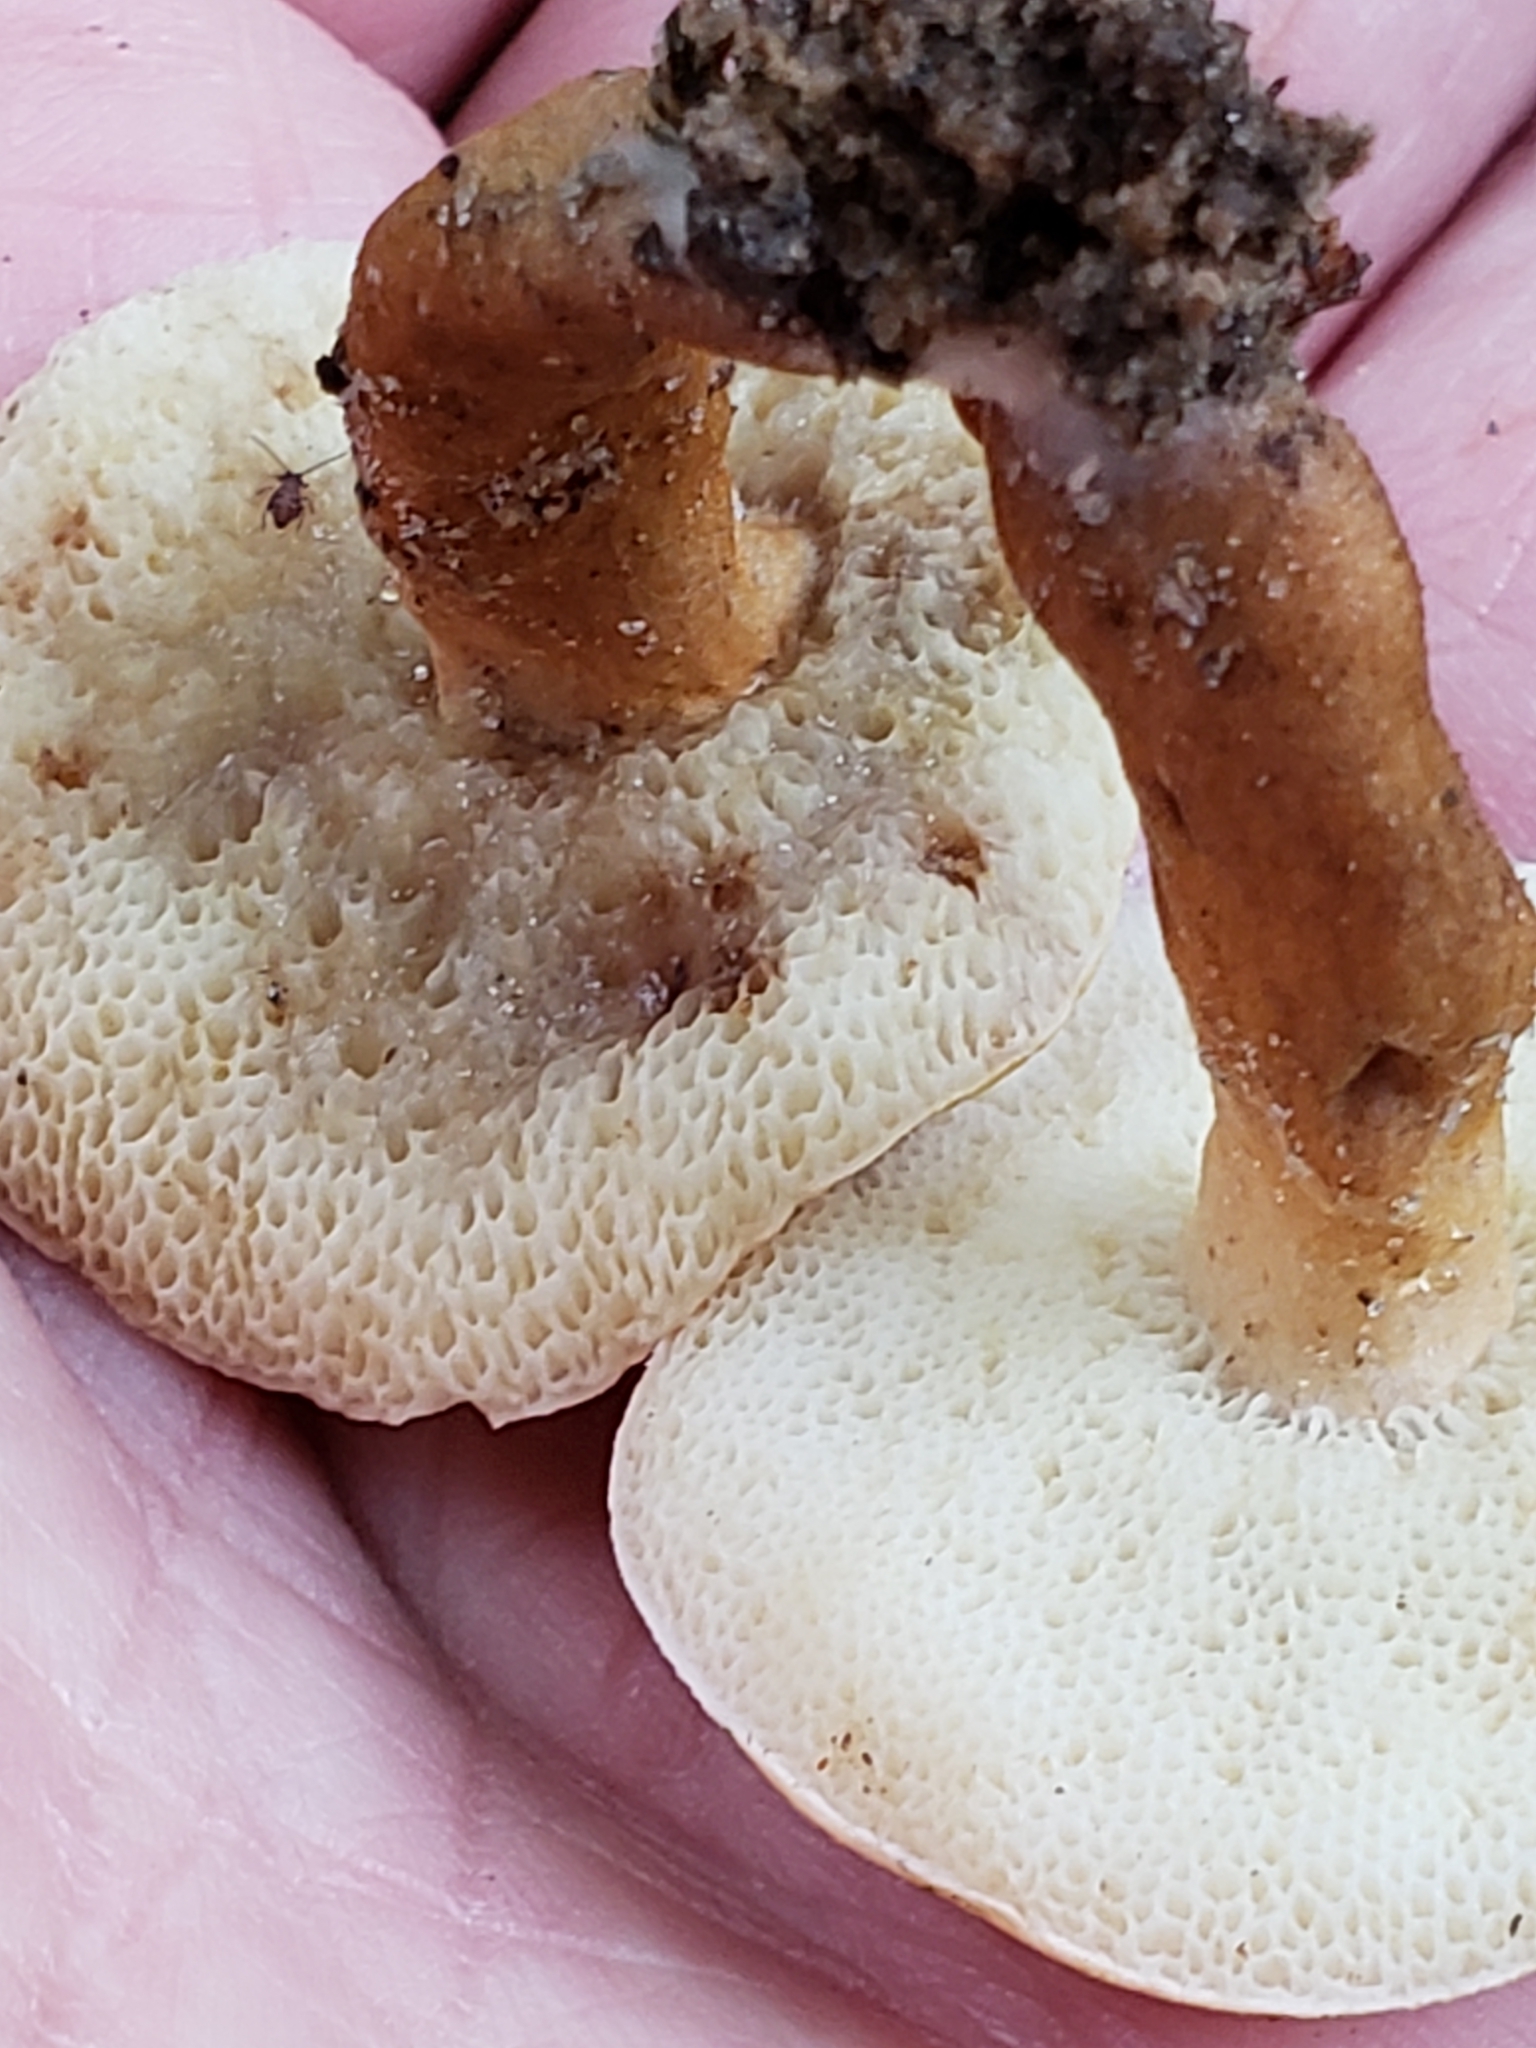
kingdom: Fungi
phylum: Basidiomycota
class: Agaricomycetes
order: Boletales
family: Gyroporaceae
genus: Gyroporus
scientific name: Gyroporus castaneus
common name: Chestnut bolete
